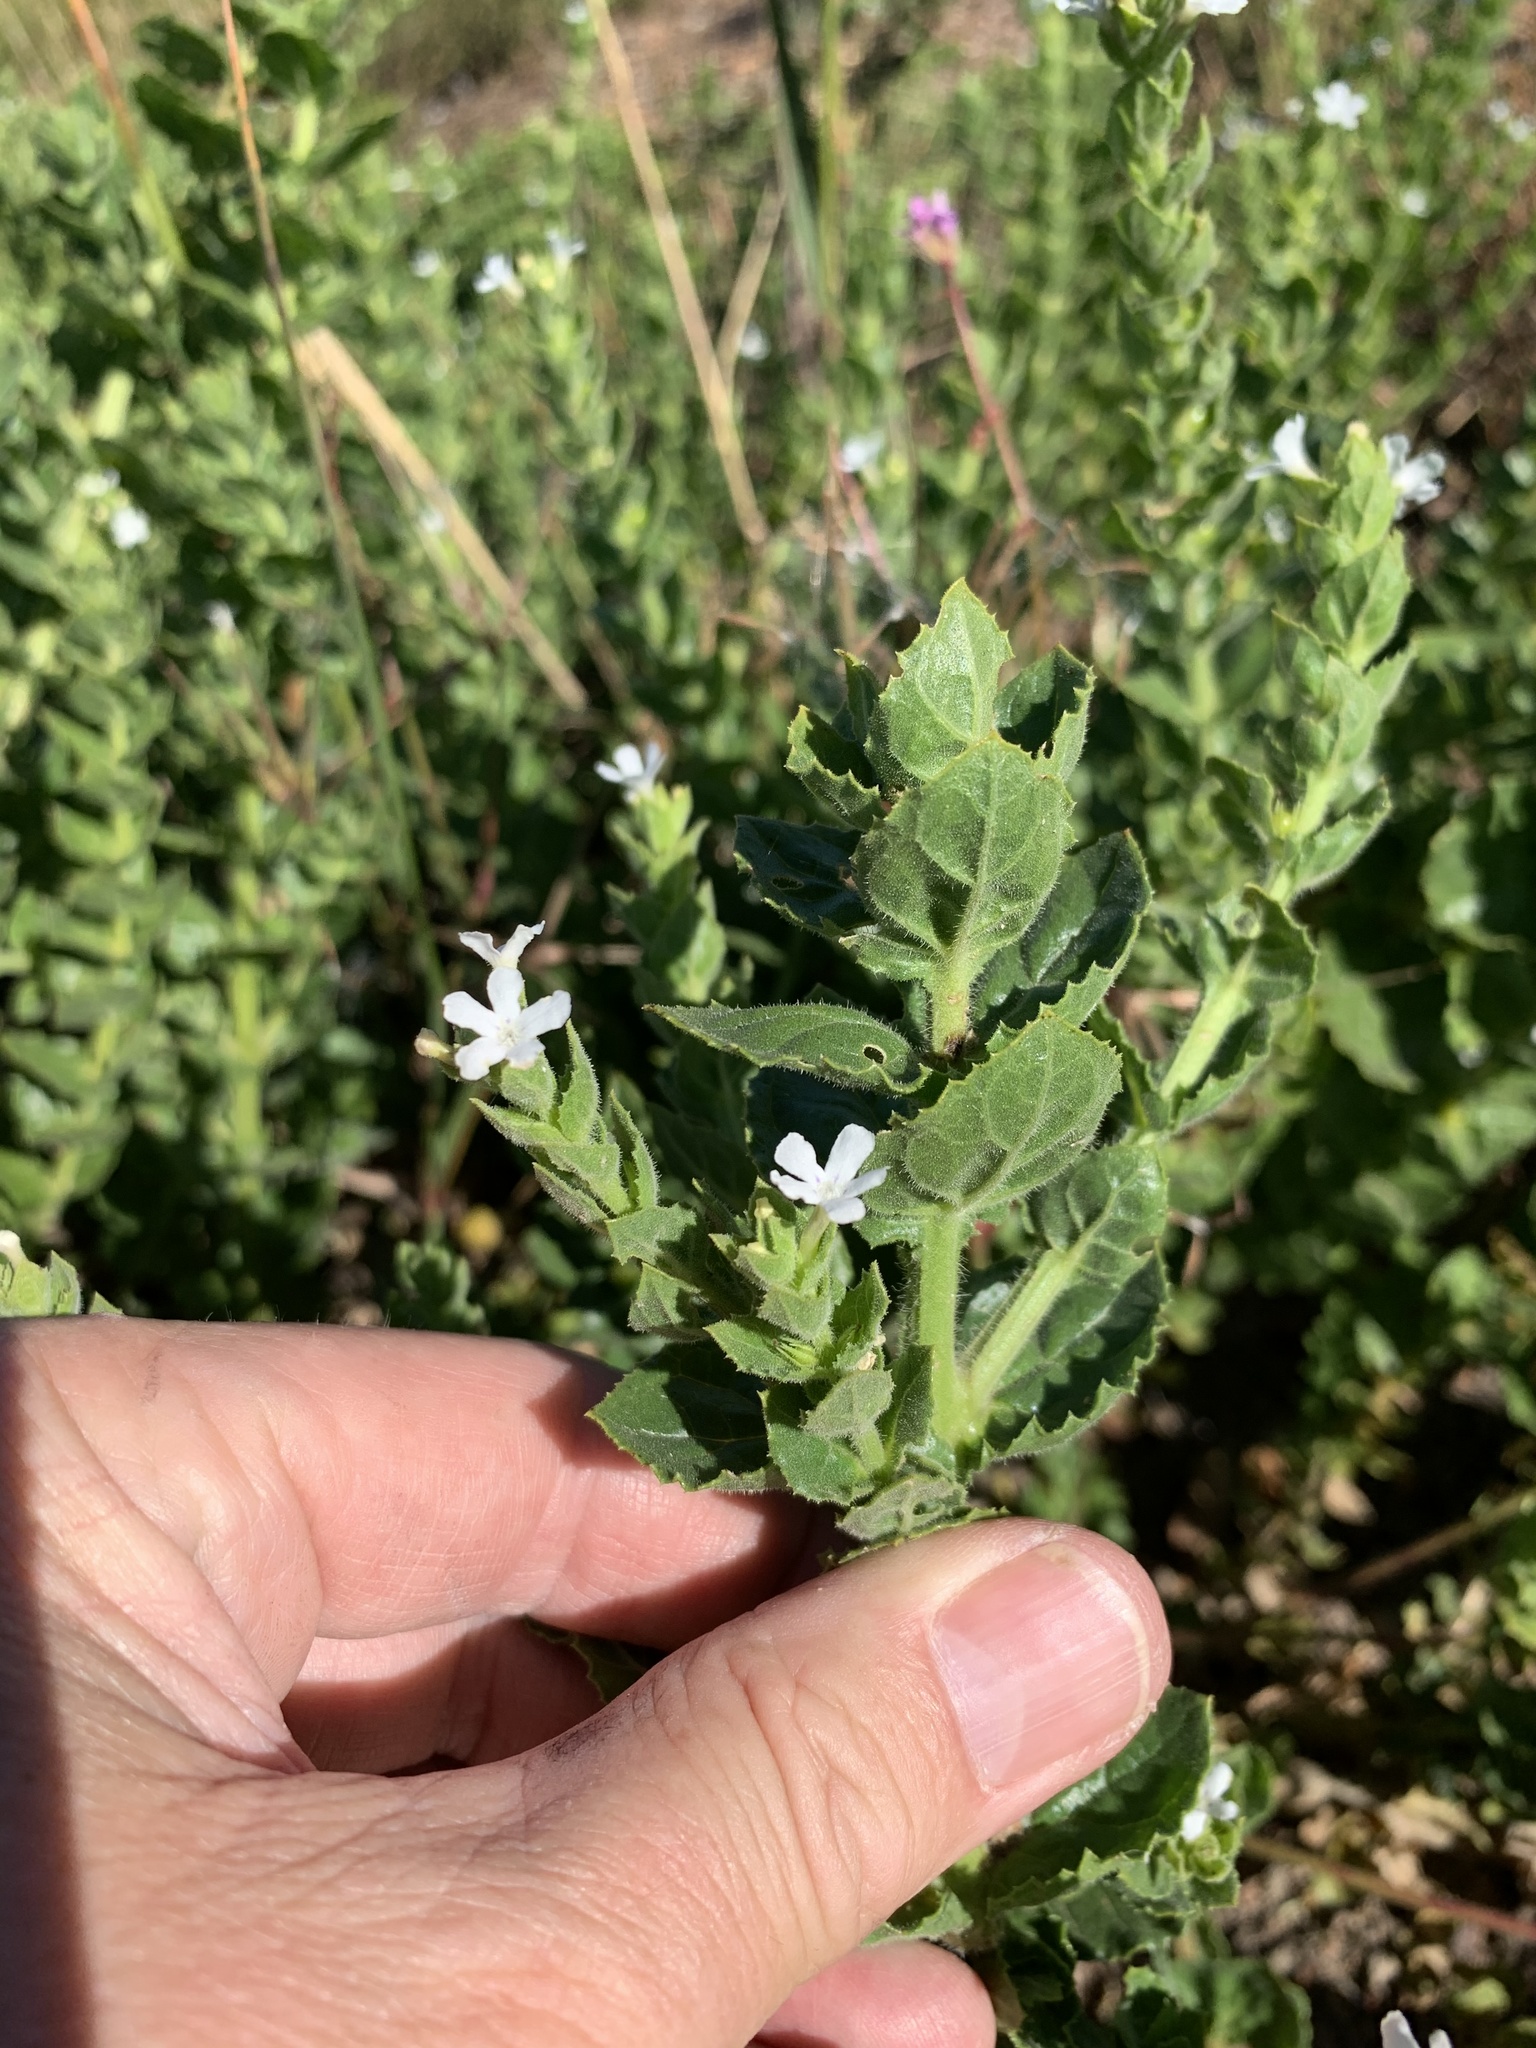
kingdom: Plantae
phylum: Tracheophyta
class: Magnoliopsida
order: Lamiales
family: Scrophulariaceae
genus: Oftia
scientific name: Oftia africana
